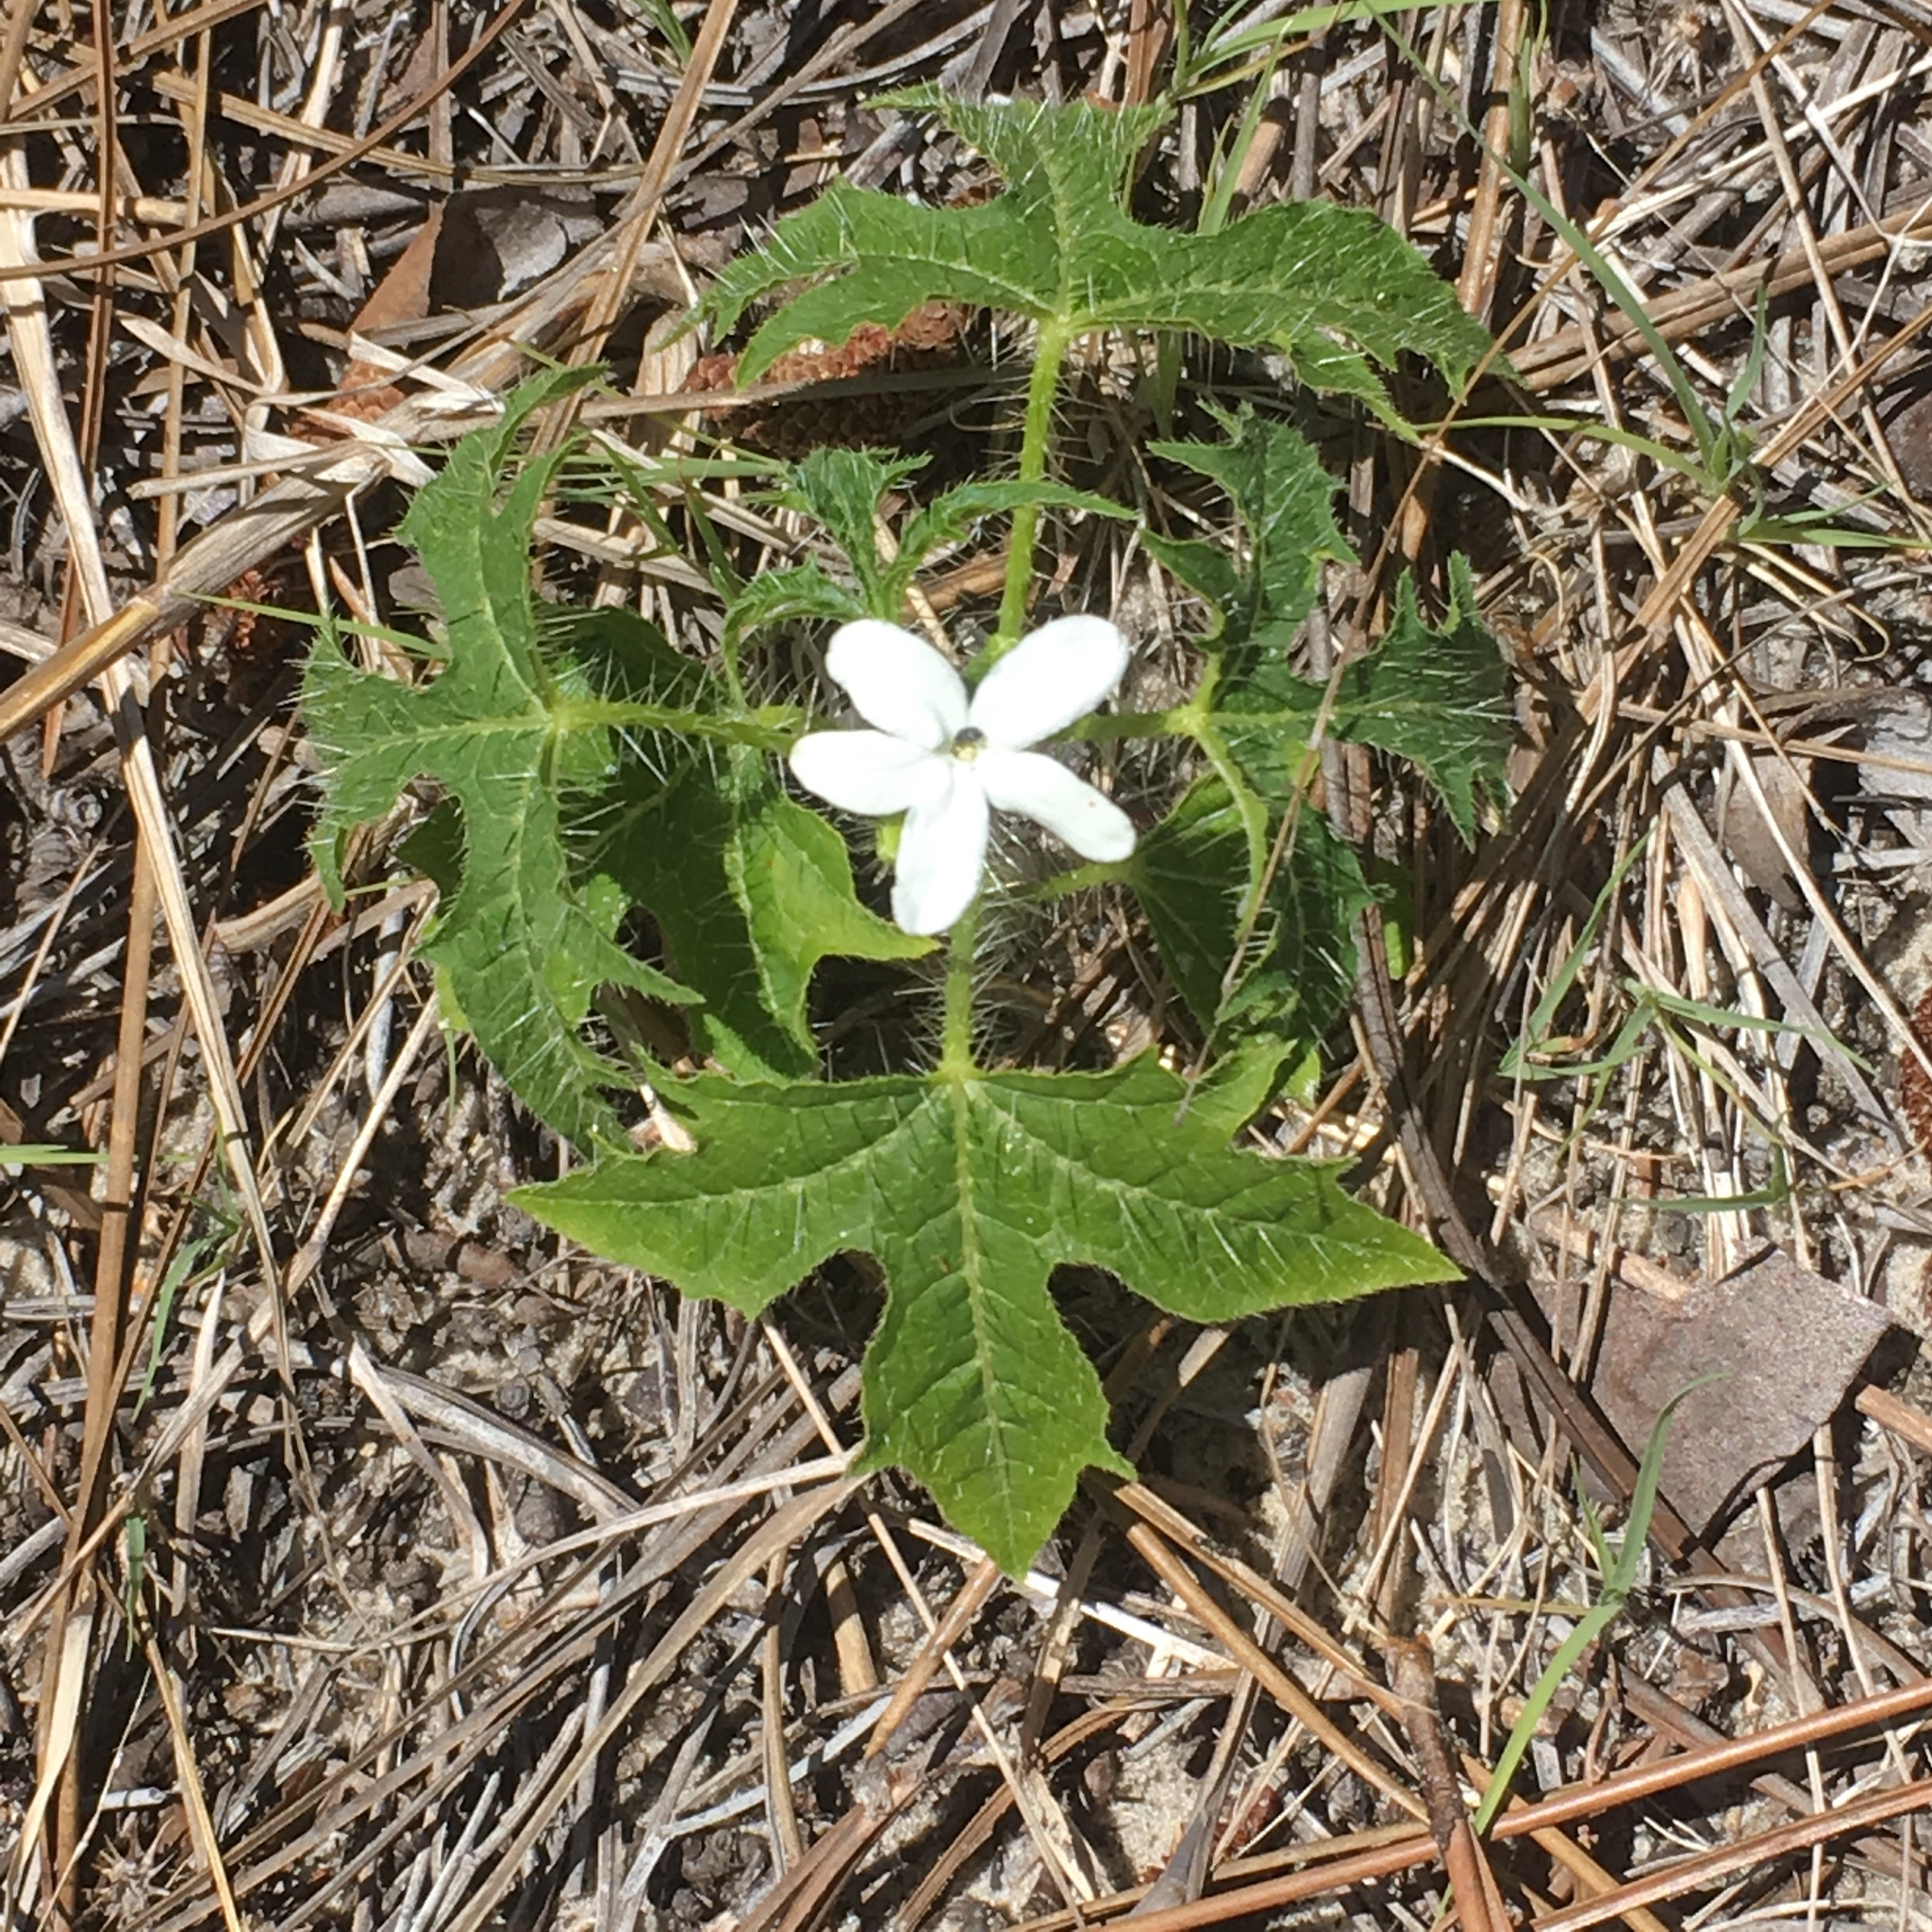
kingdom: Plantae
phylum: Tracheophyta
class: Magnoliopsida
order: Malpighiales
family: Euphorbiaceae
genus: Cnidoscolus
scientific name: Cnidoscolus stimulosus
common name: Bull-nettle
